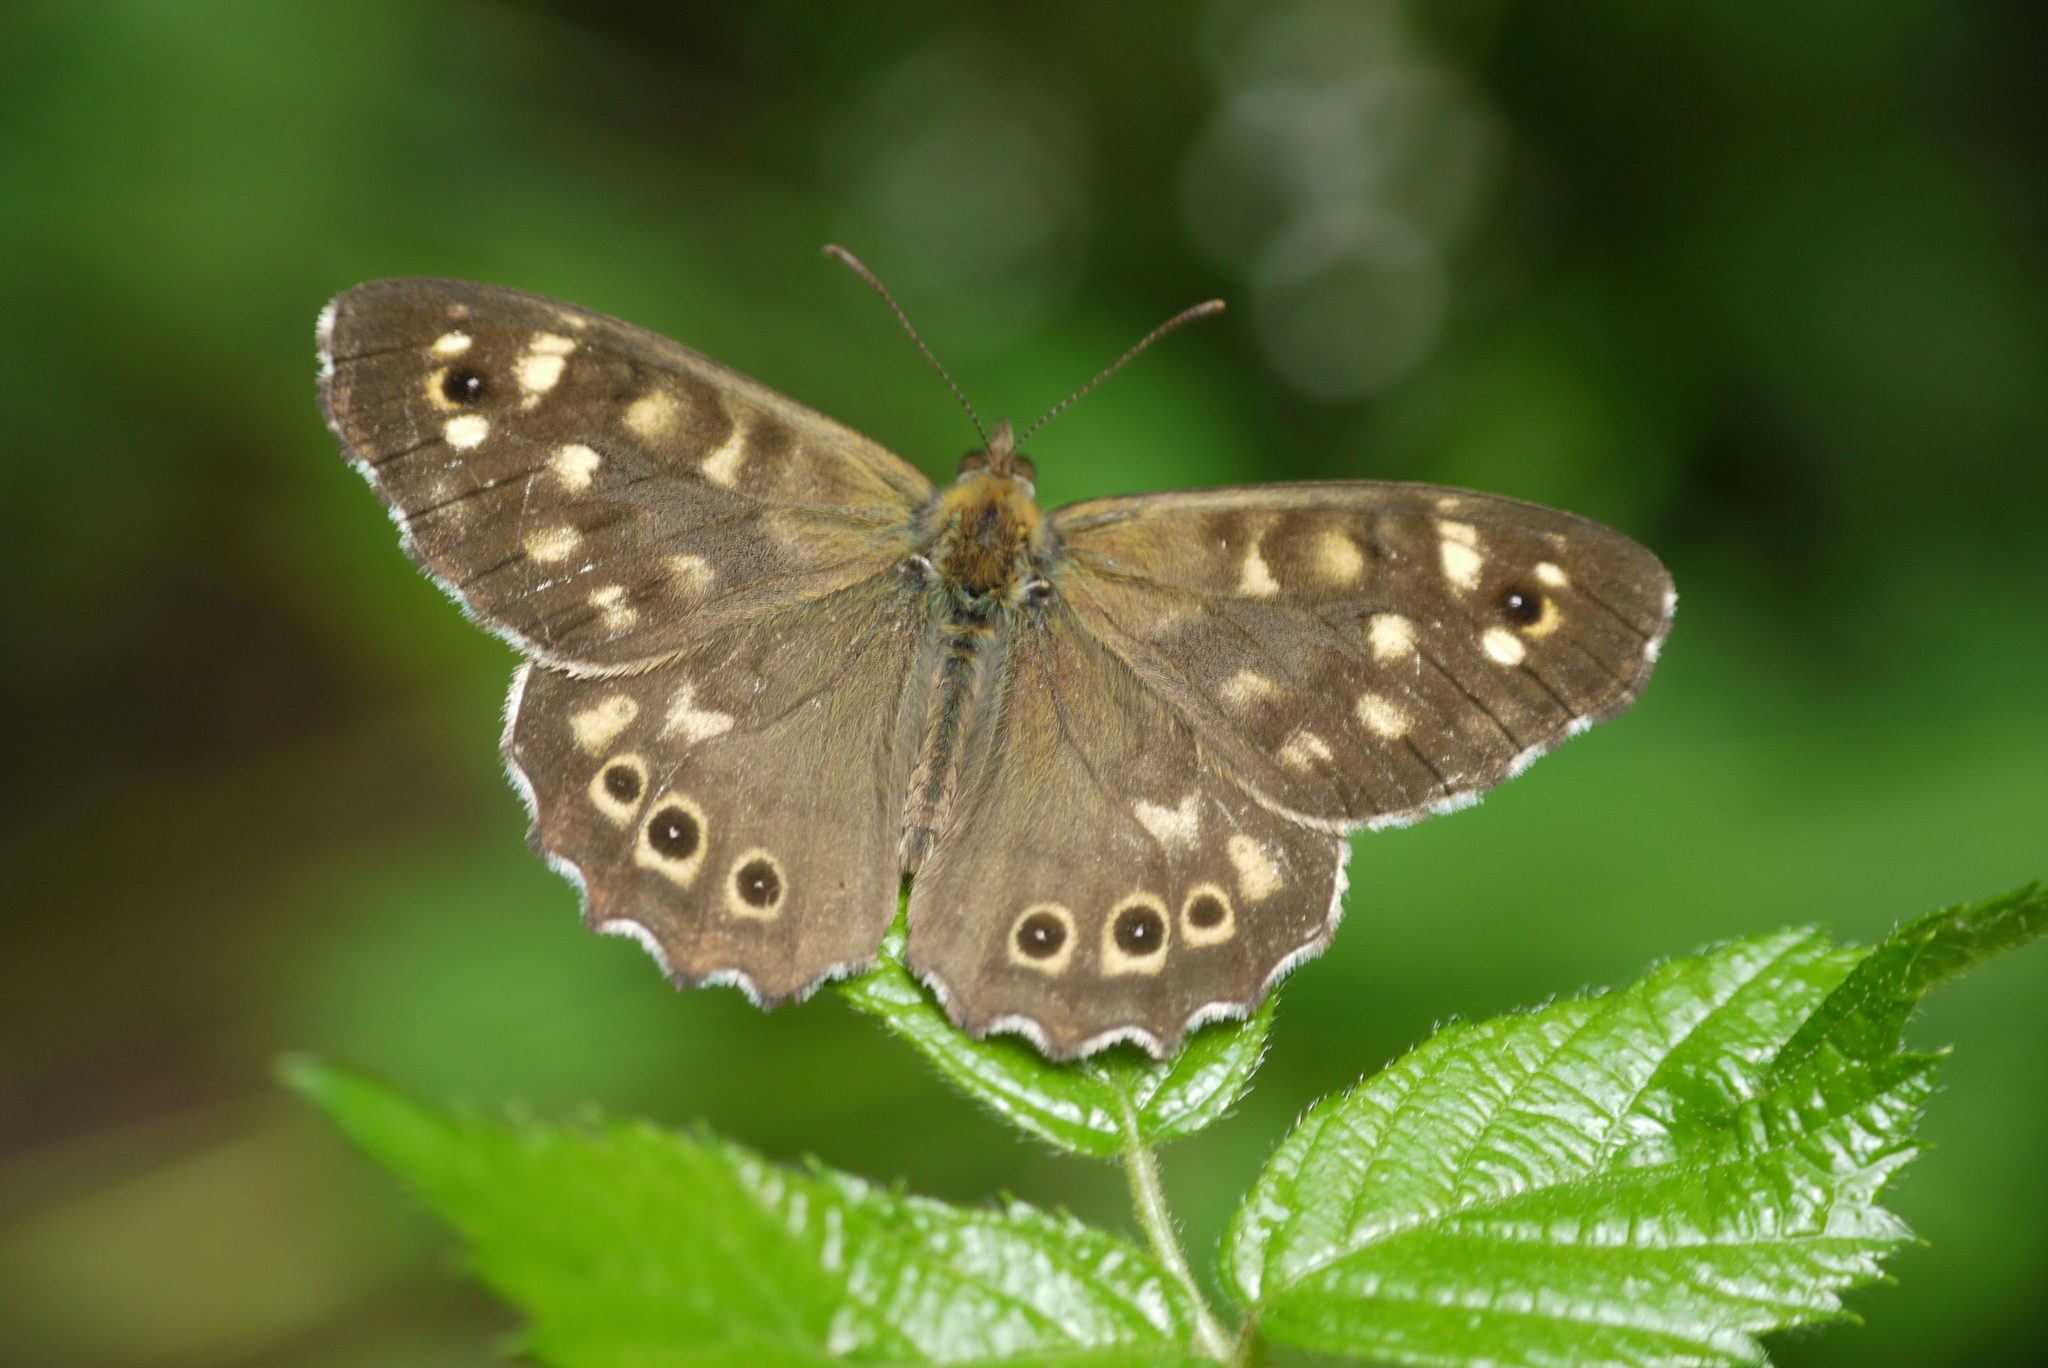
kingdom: Animalia
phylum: Arthropoda
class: Insecta
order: Lepidoptera
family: Nymphalidae
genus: Pararge
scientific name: Pararge aegeria
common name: Speckled wood
